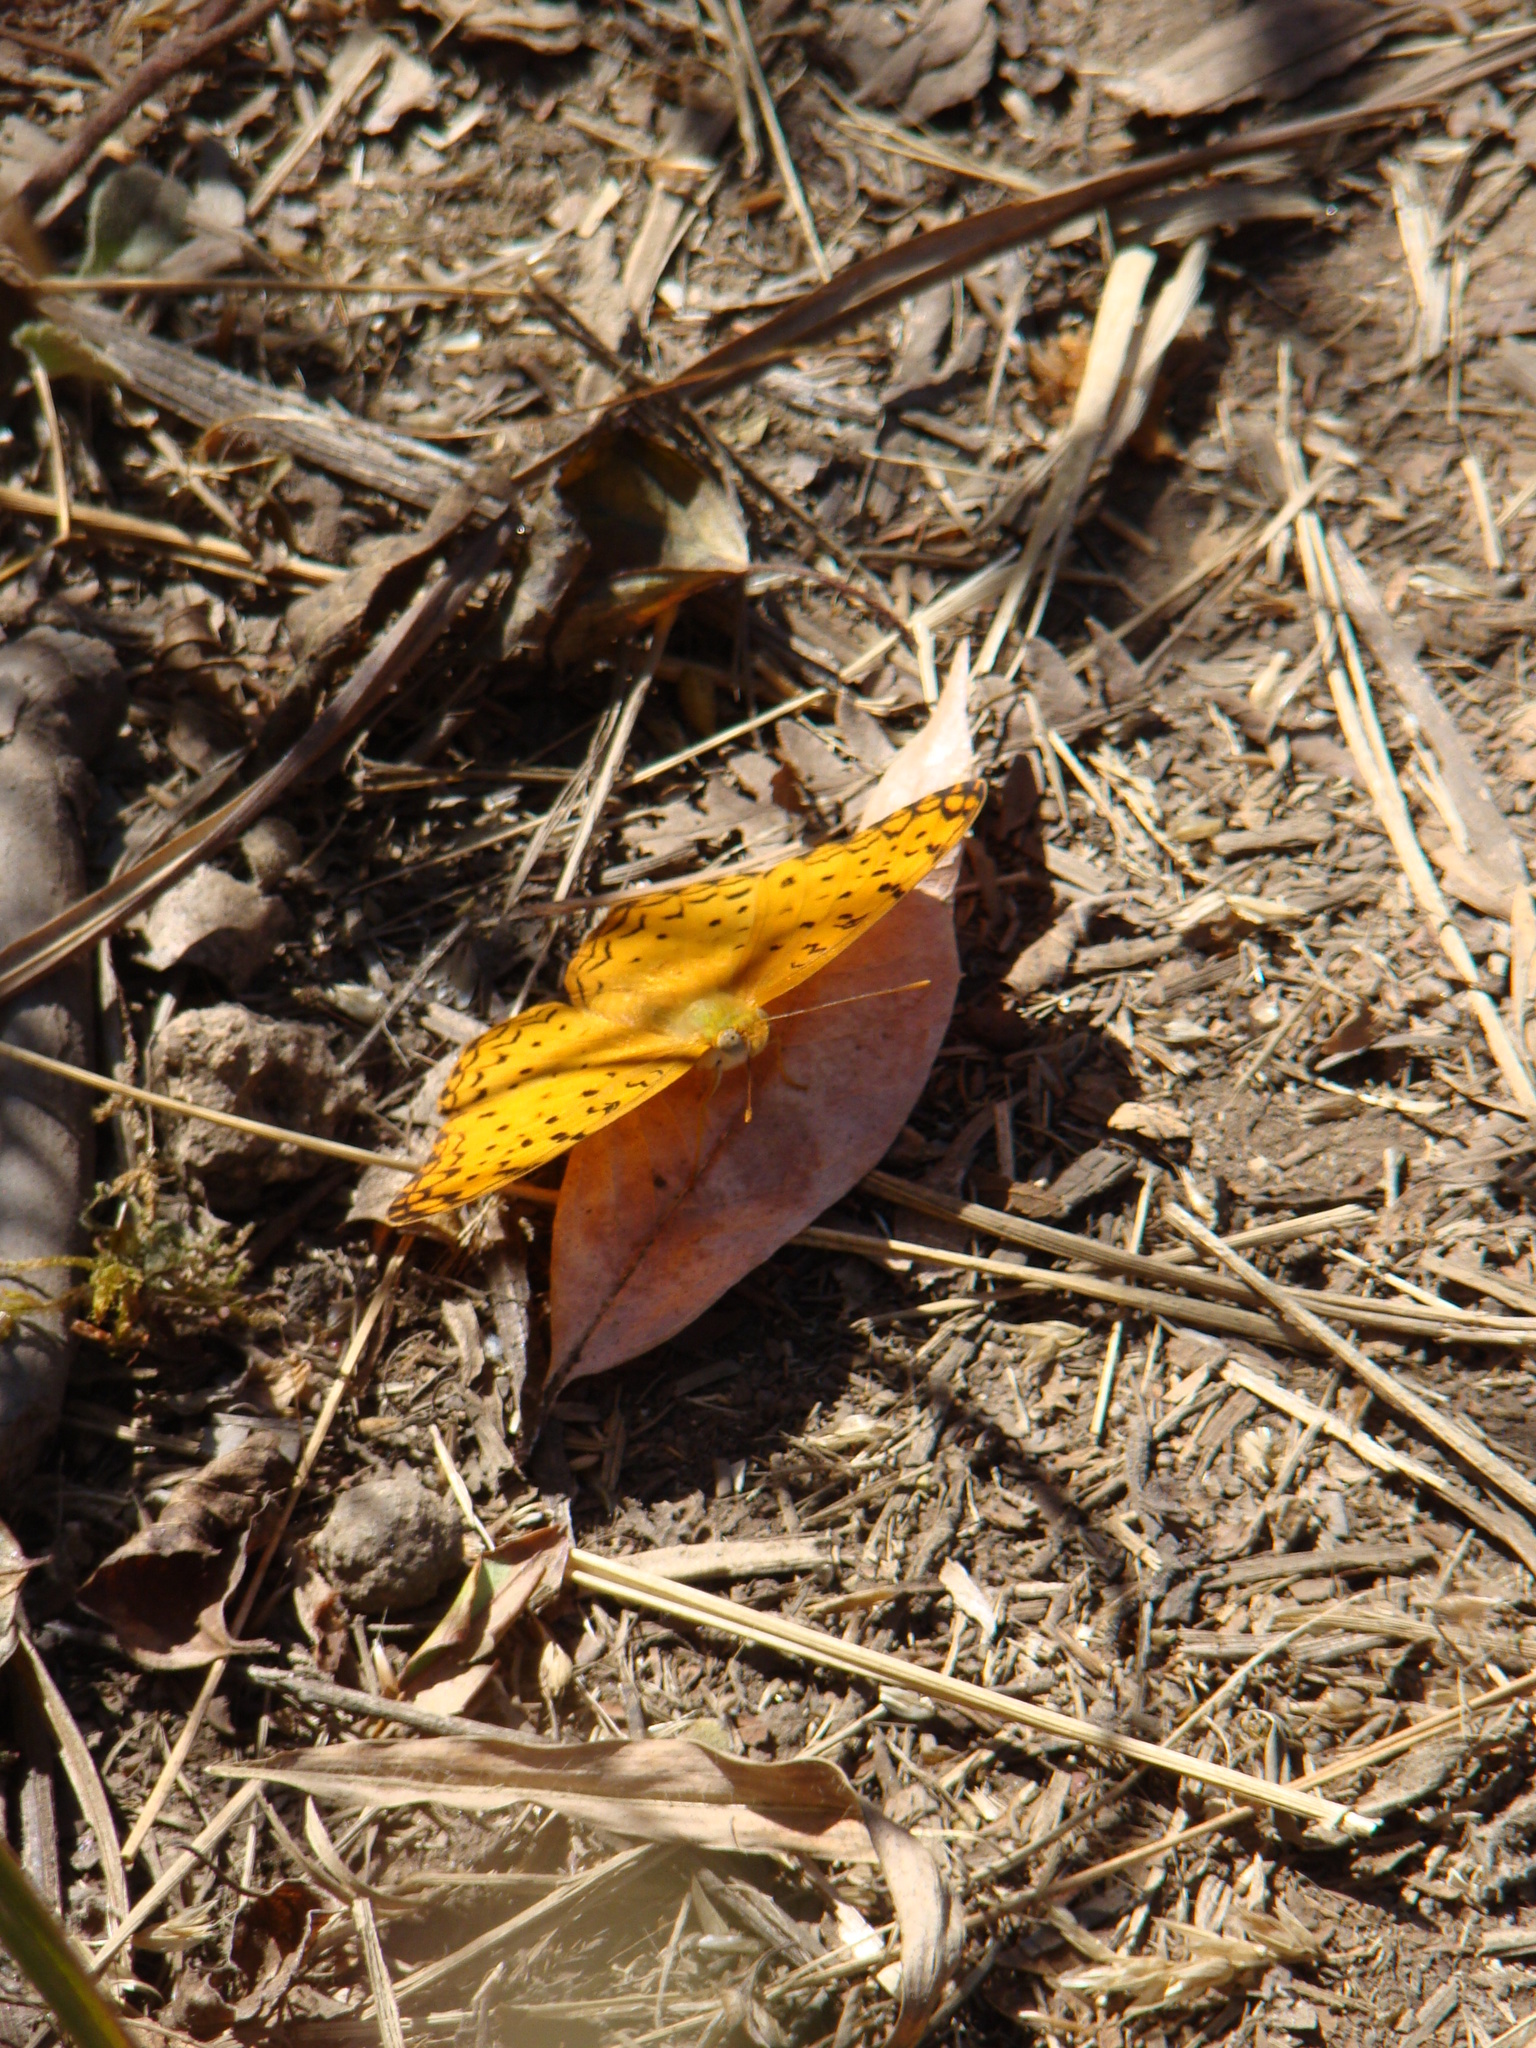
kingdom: Animalia
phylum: Arthropoda
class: Insecta
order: Lepidoptera
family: Nymphalidae
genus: Phalanta
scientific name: Phalanta phalantha
